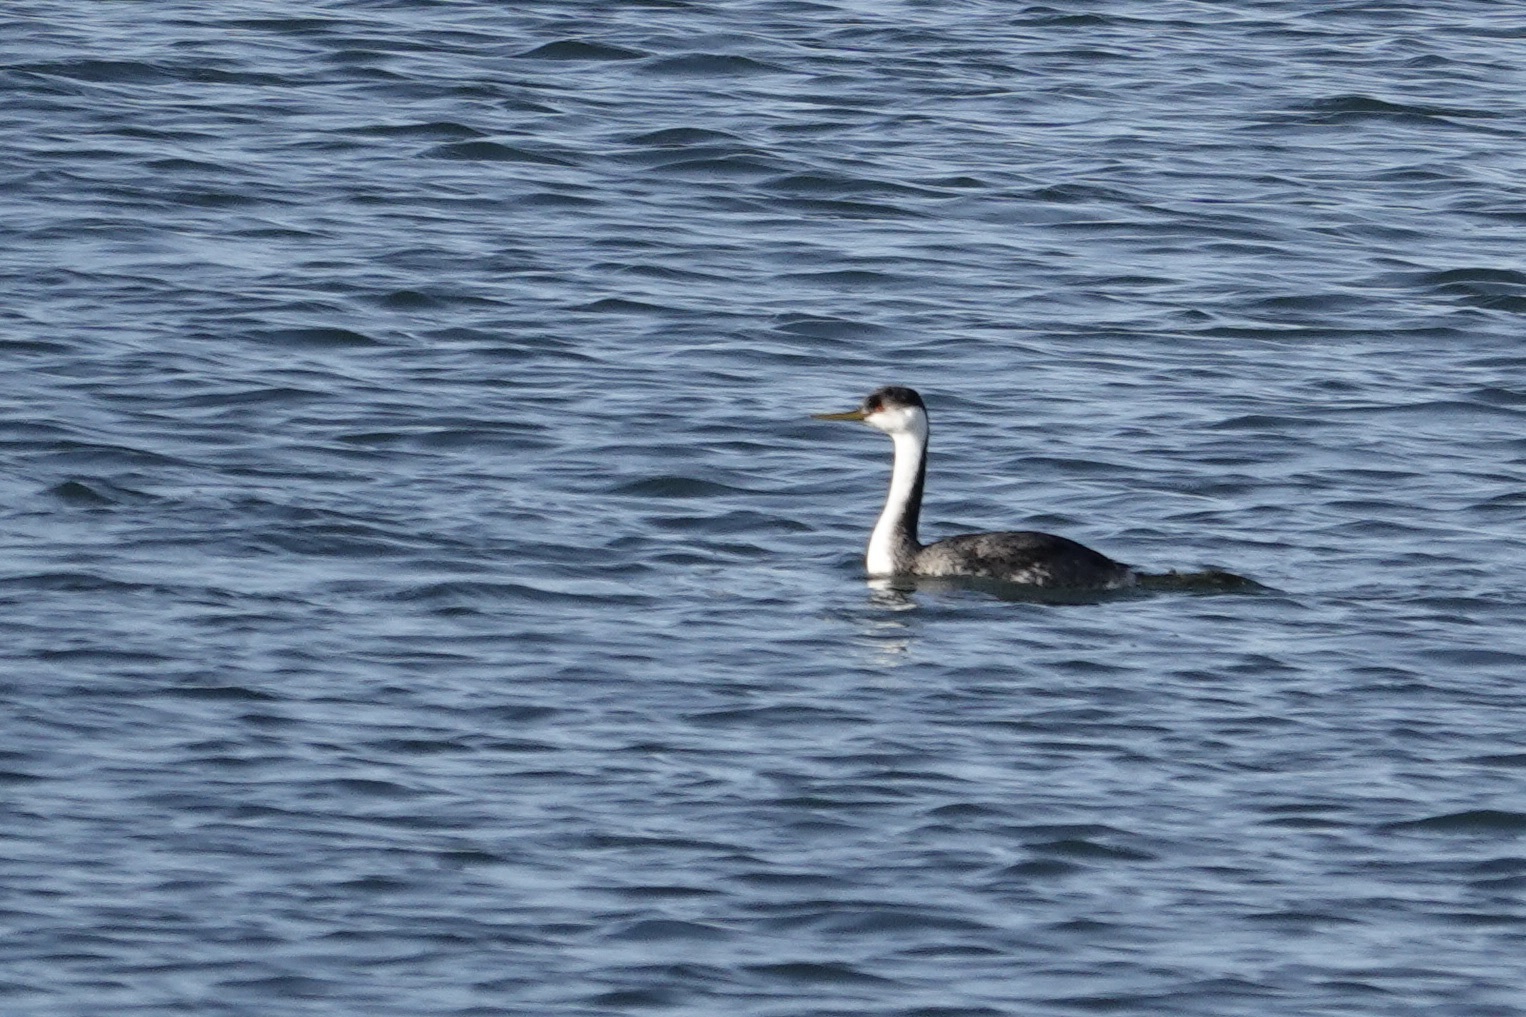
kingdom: Animalia
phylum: Chordata
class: Aves
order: Podicipediformes
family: Podicipedidae
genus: Aechmophorus
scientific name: Aechmophorus occidentalis
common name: Western grebe
